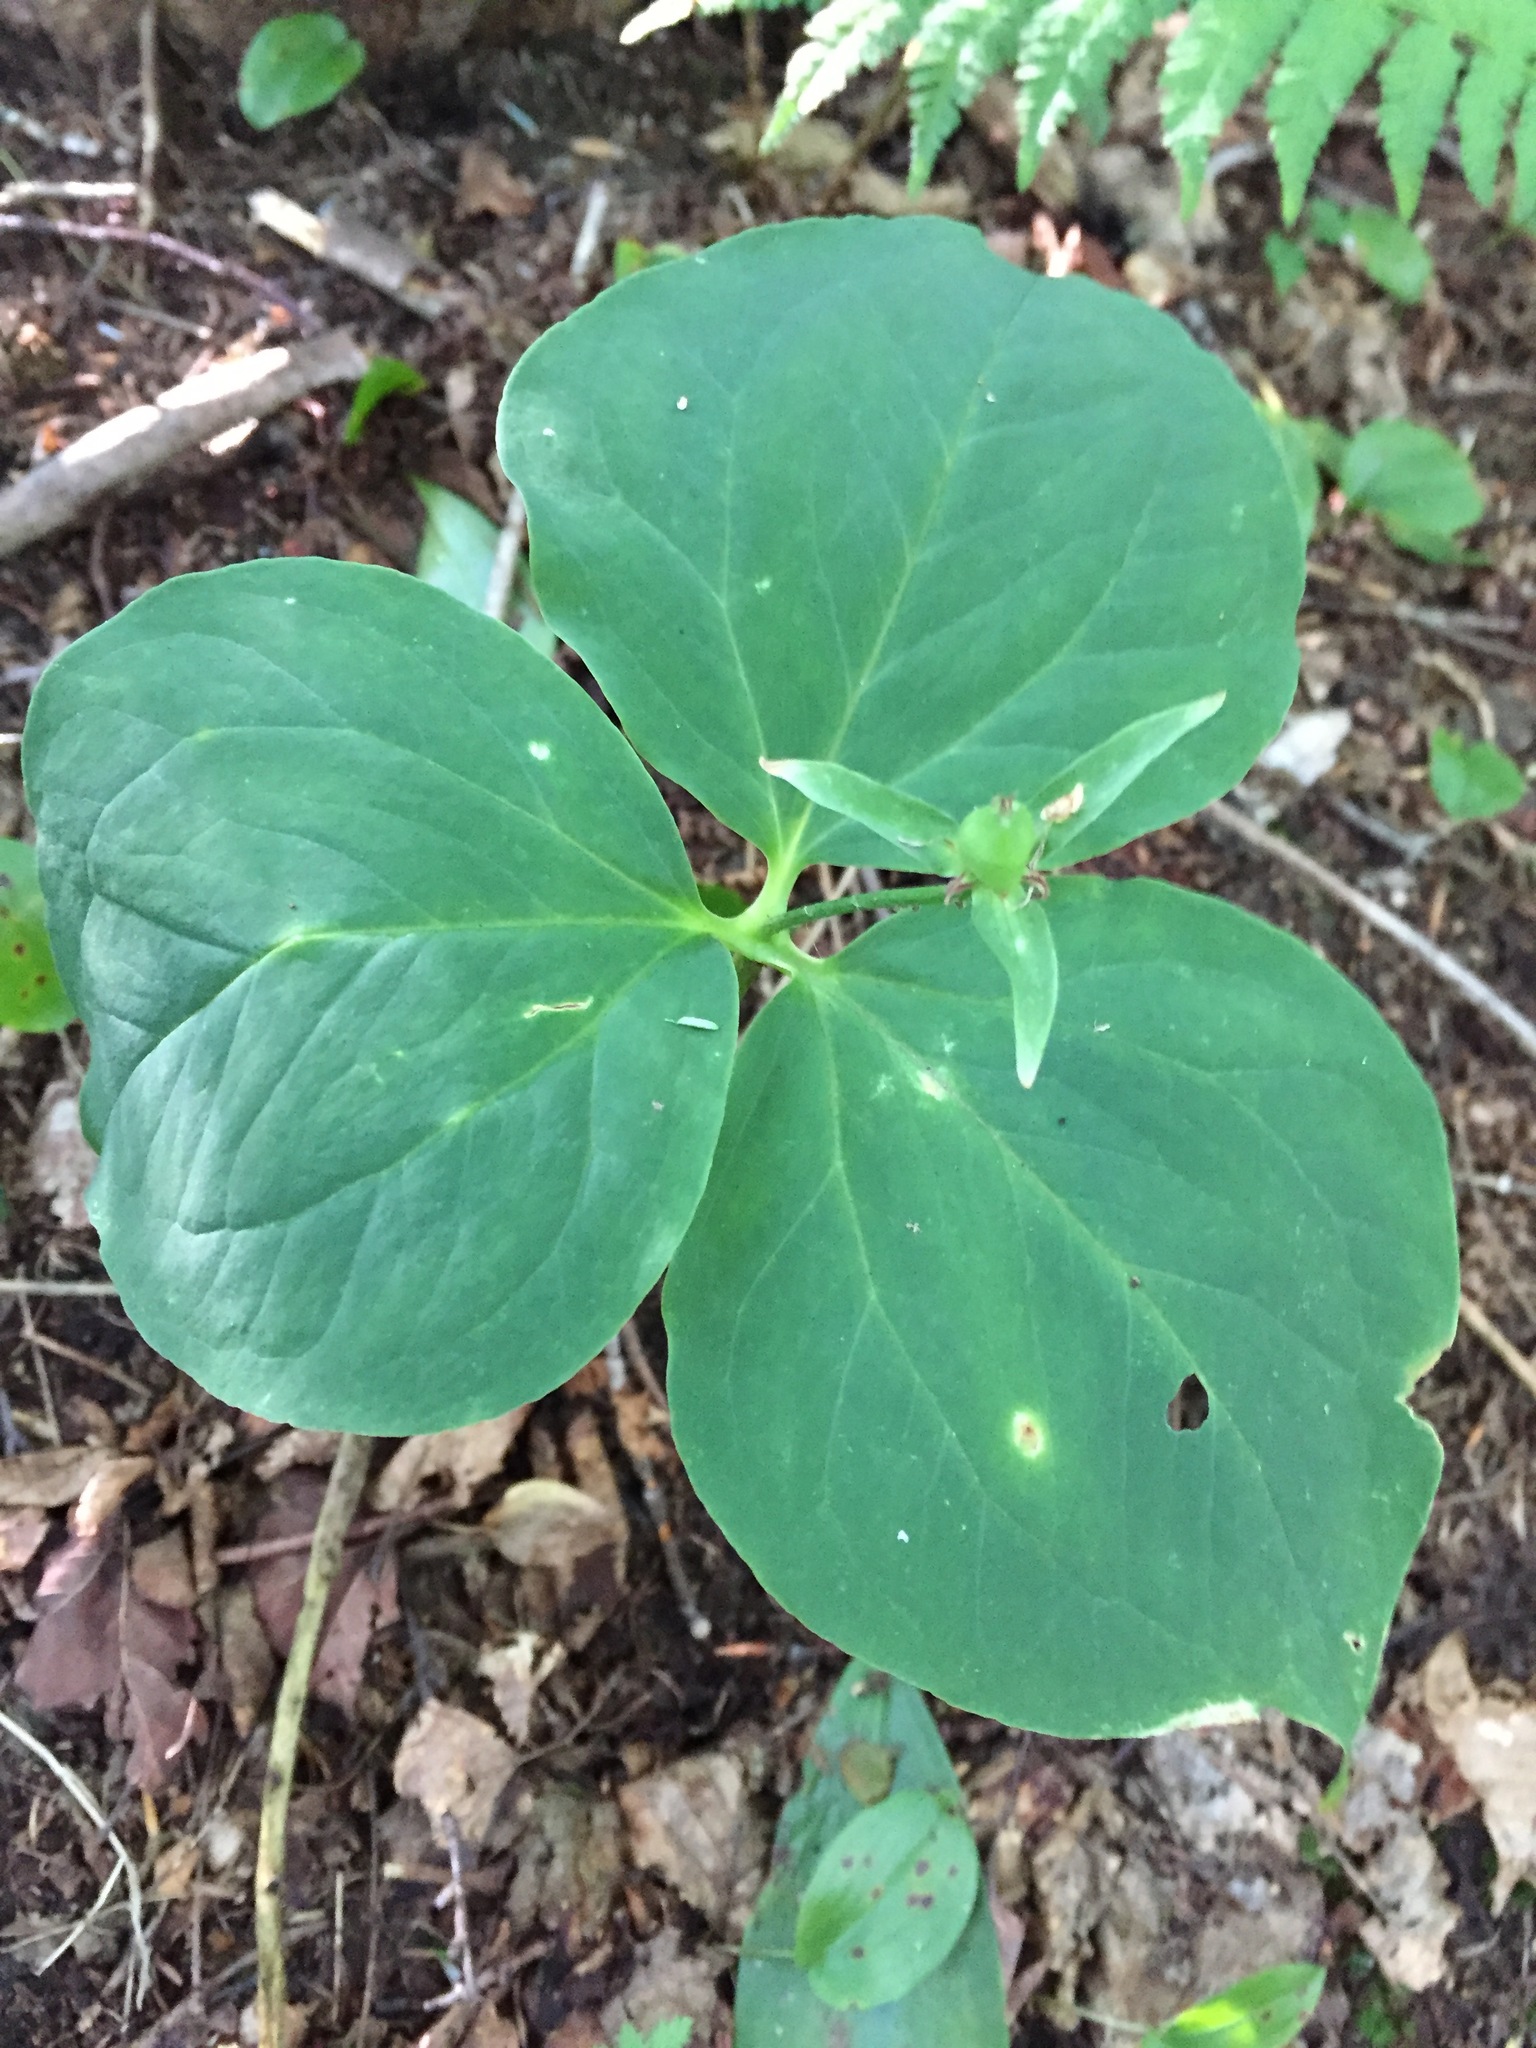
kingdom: Plantae
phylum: Tracheophyta
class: Liliopsida
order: Liliales
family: Melanthiaceae
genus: Trillium
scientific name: Trillium undulatum
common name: Paint trillium
